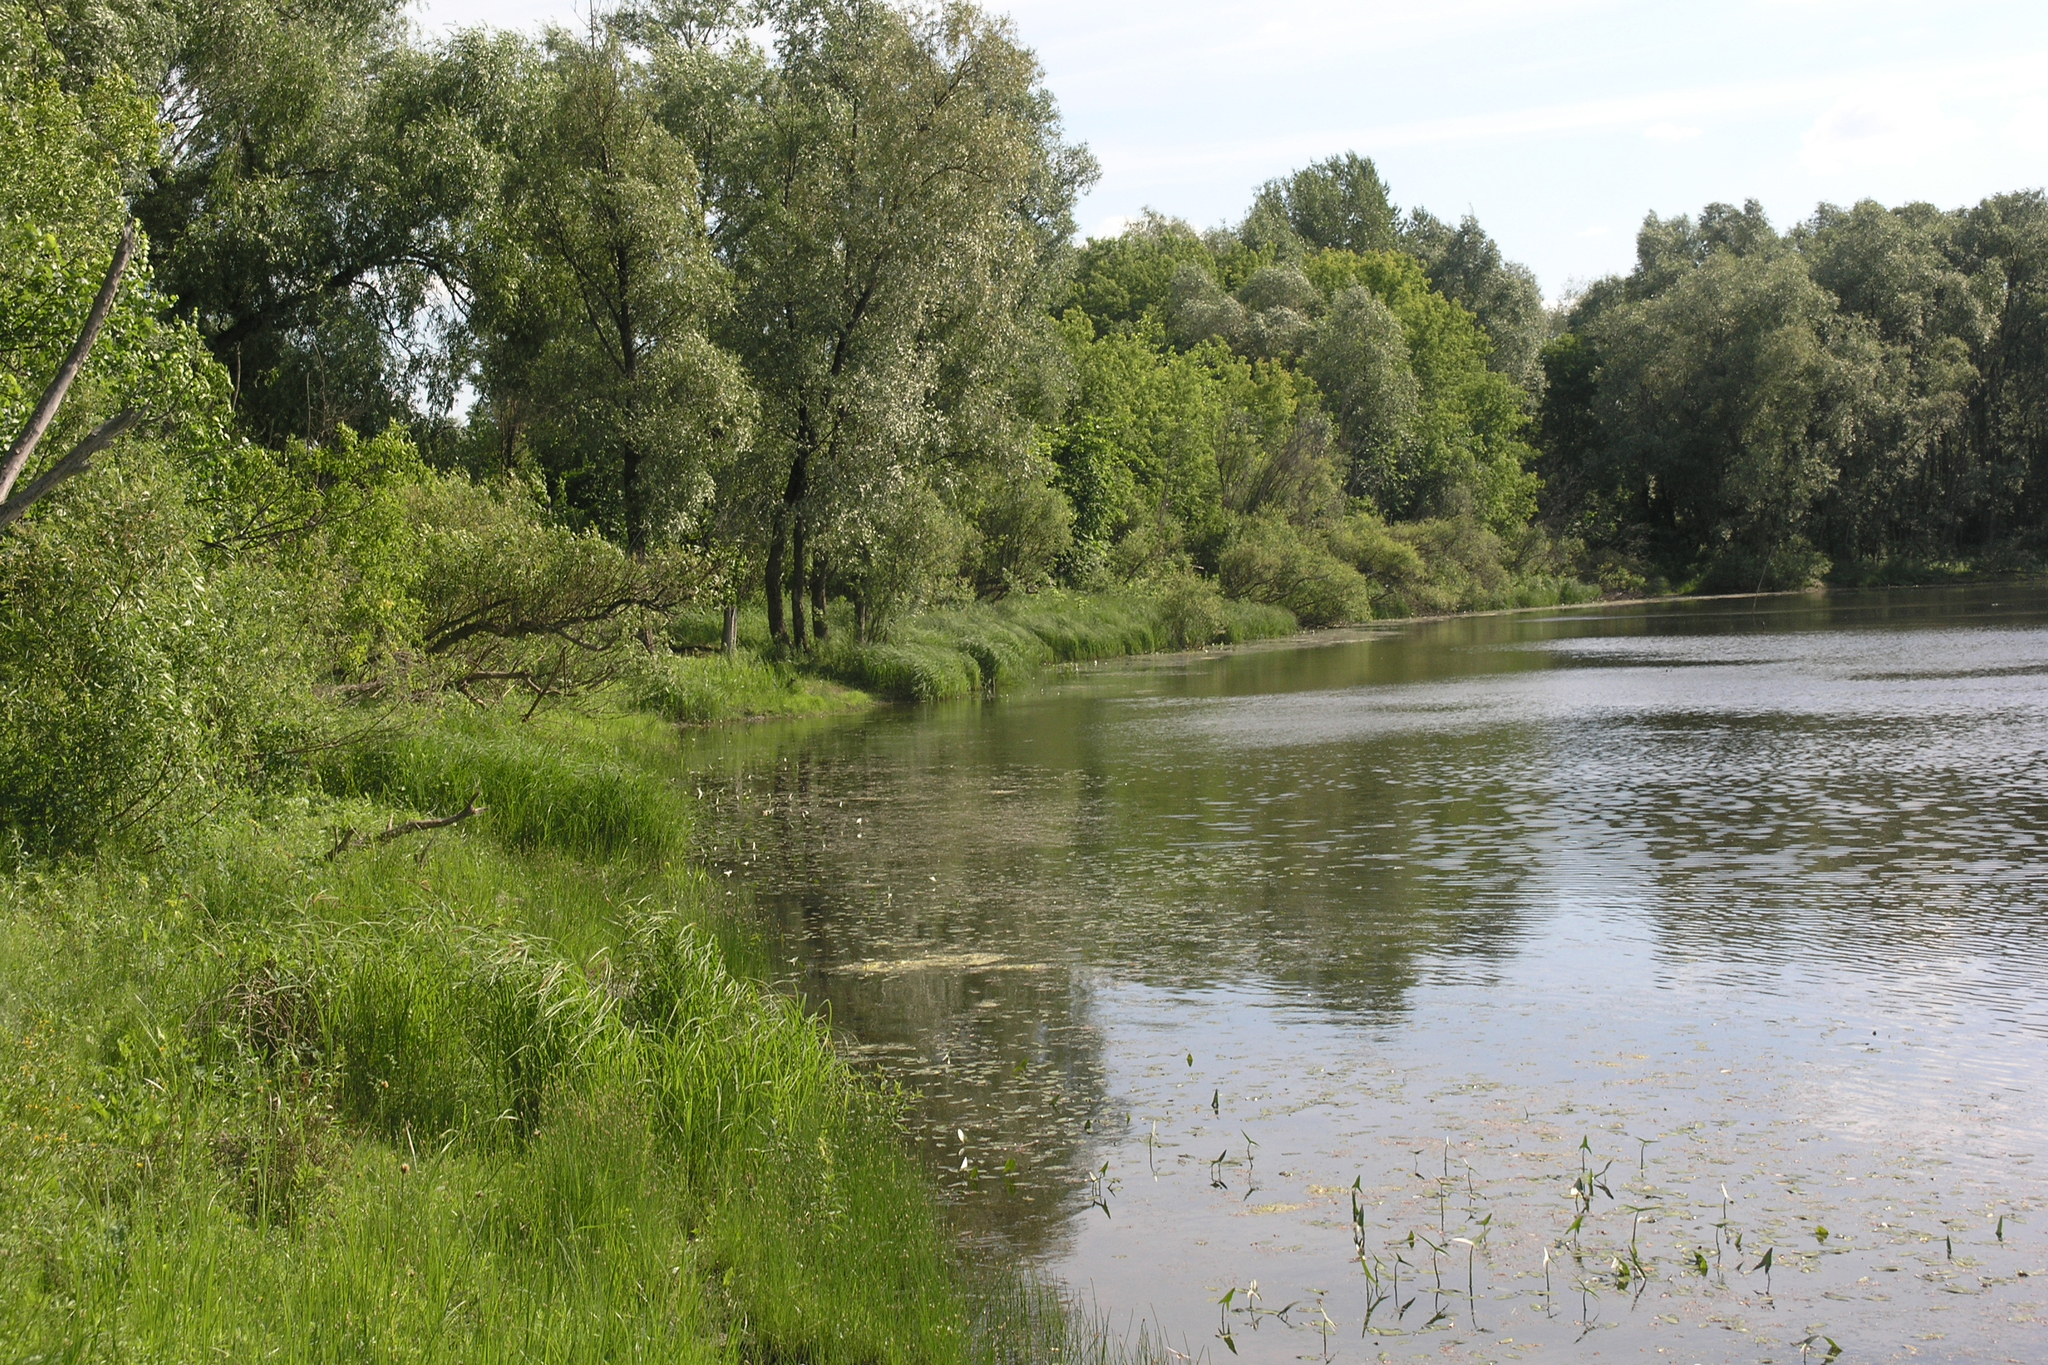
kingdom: Plantae
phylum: Tracheophyta
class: Magnoliopsida
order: Malpighiales
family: Salicaceae
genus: Salix
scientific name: Salix alba
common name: White willow
